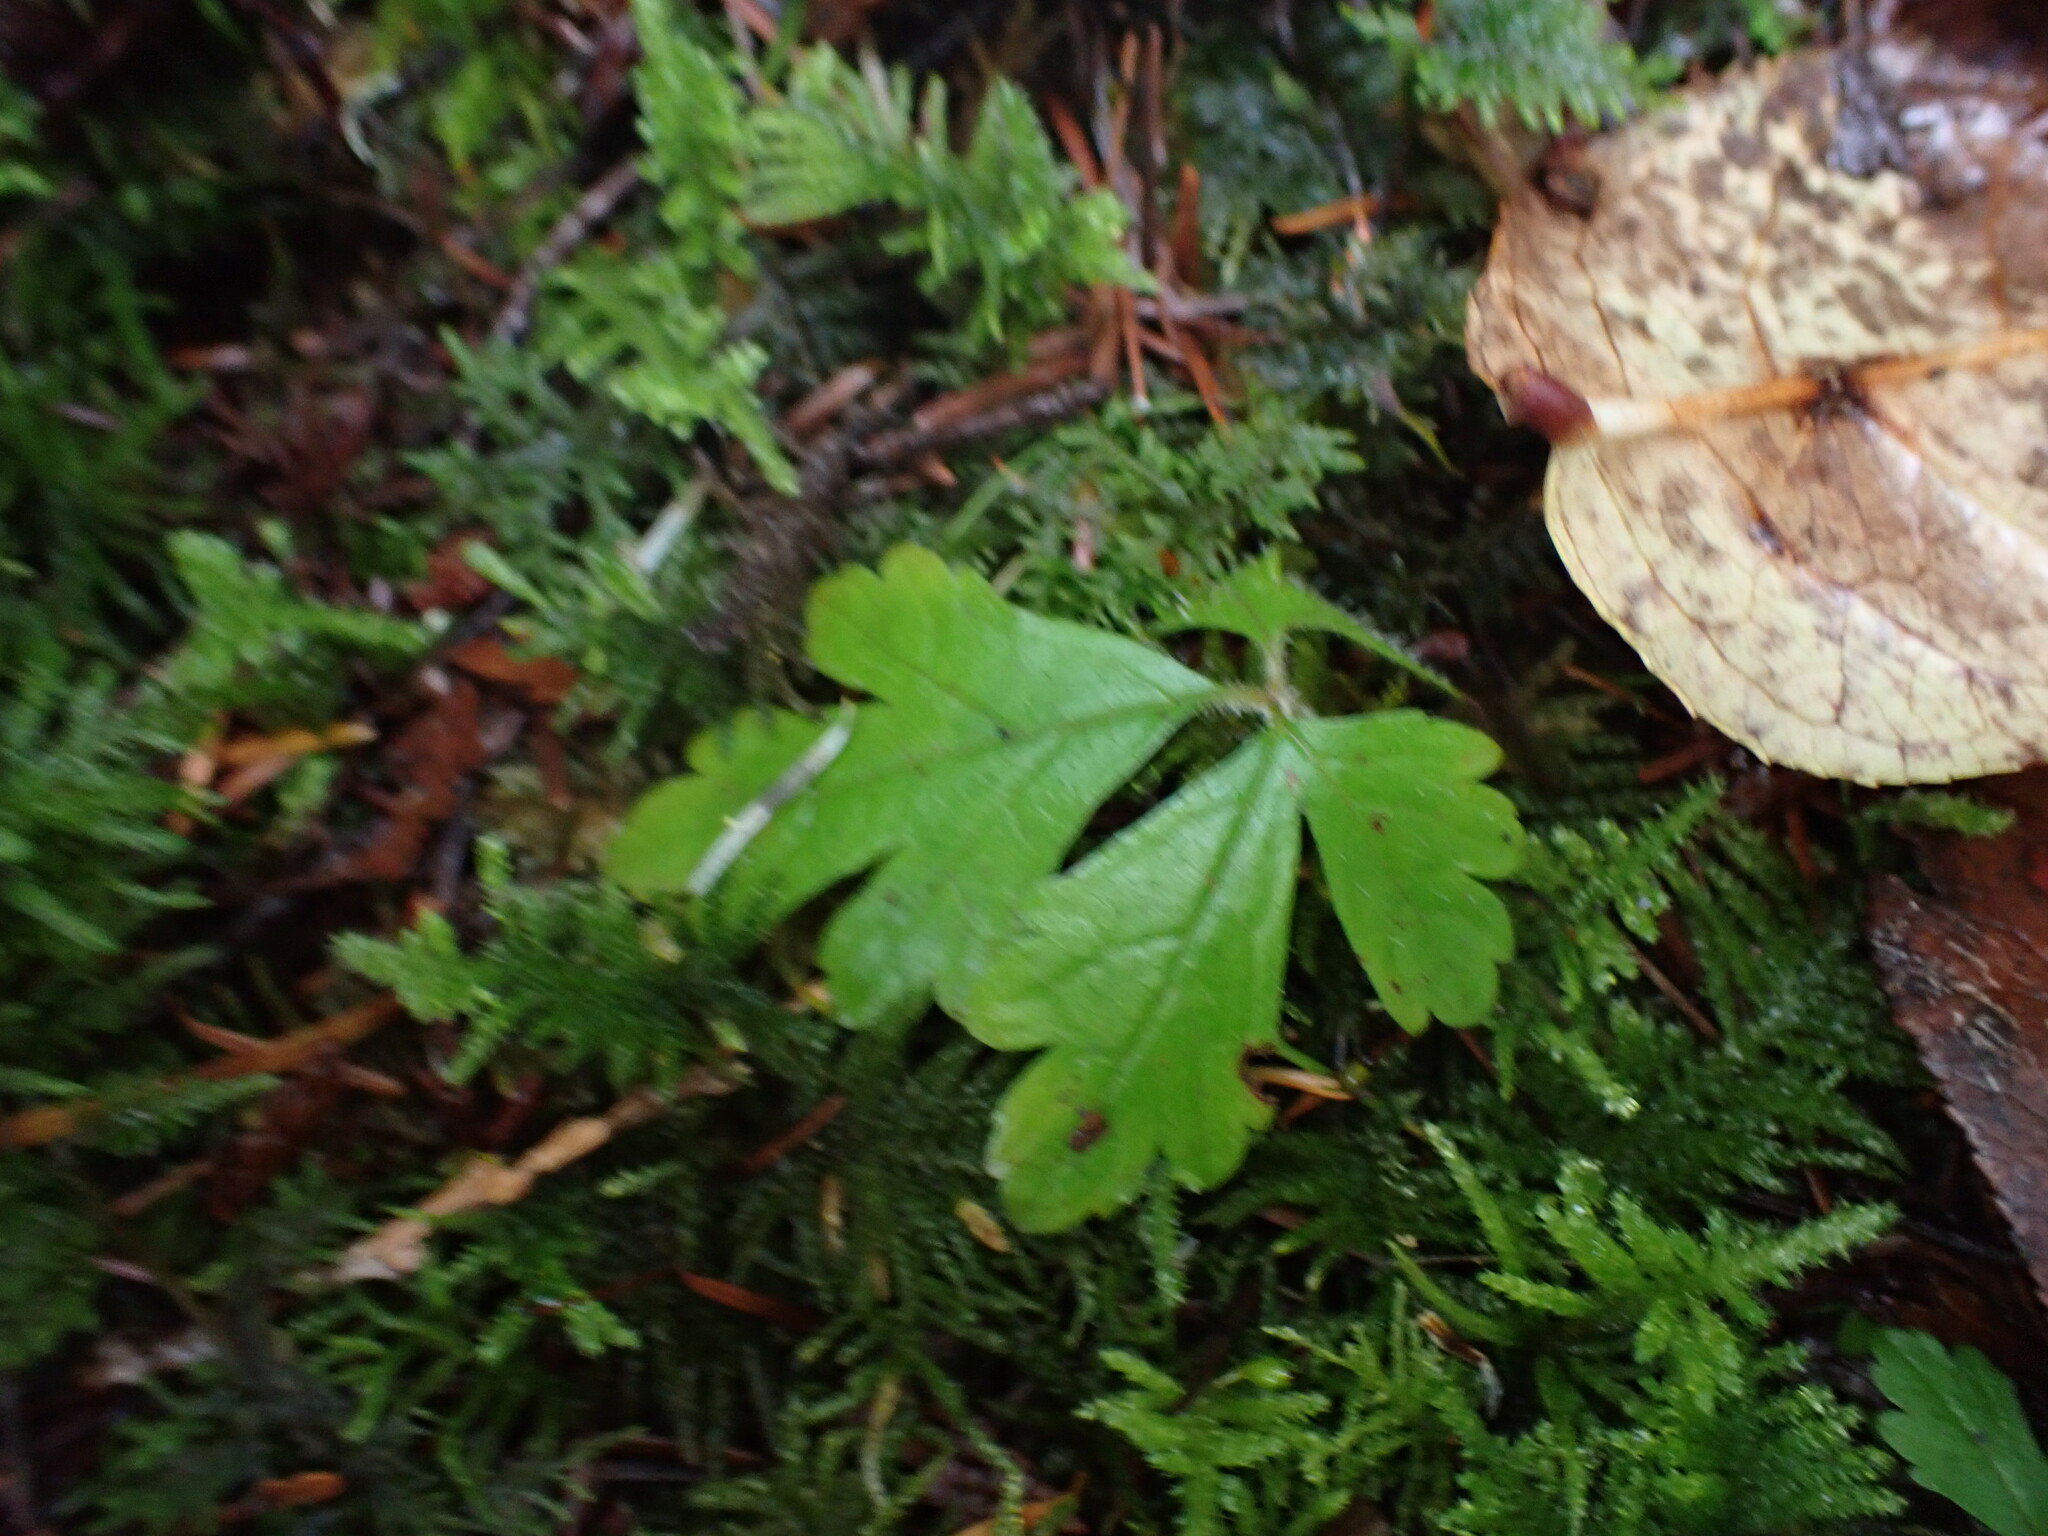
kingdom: Plantae
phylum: Tracheophyta
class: Magnoliopsida
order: Saxifragales
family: Saxifragaceae
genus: Tiarella
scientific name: Tiarella trifoliata
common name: Sugar-scoop
